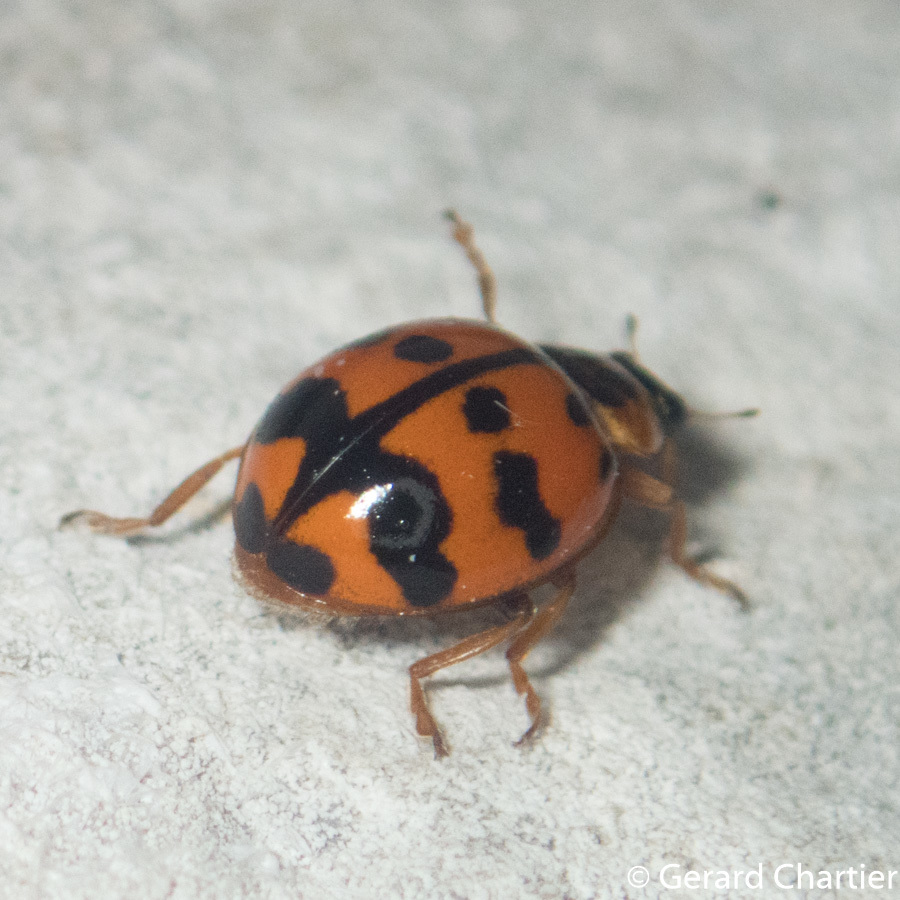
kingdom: Animalia
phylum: Arthropoda
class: Insecta
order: Coleoptera
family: Coccinellidae
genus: Harmonia
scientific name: Harmonia octomaculata
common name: Lady beetle
